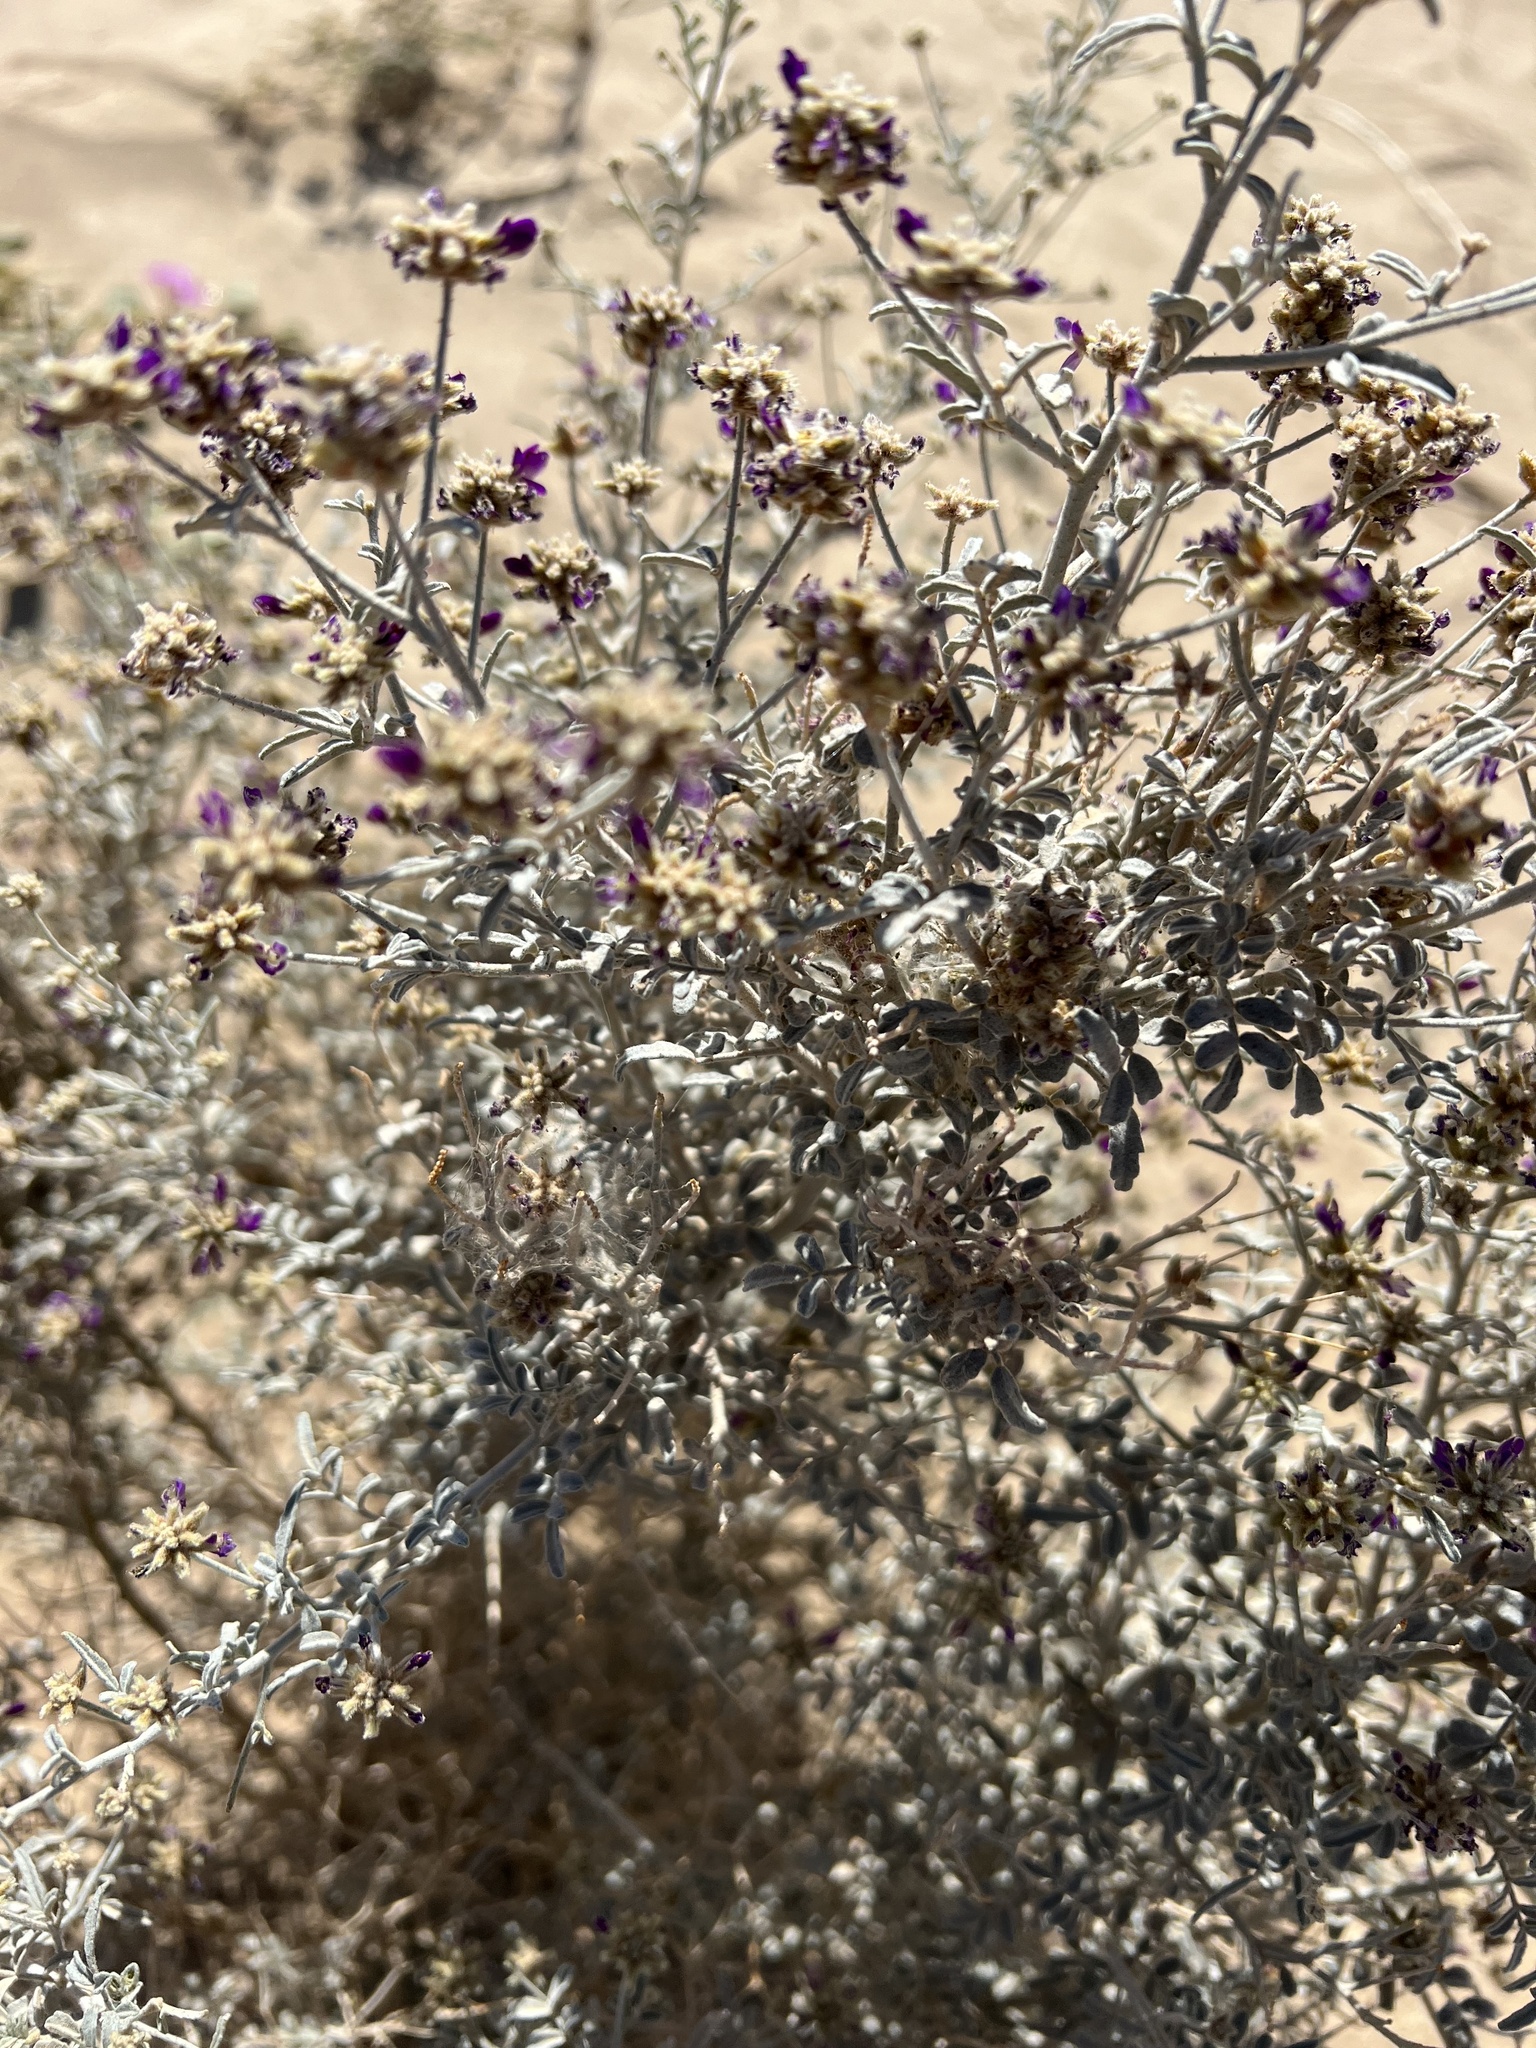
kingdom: Plantae
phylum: Tracheophyta
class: Magnoliopsida
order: Fabales
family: Fabaceae
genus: Psorothamnus
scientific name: Psorothamnus emoryi
